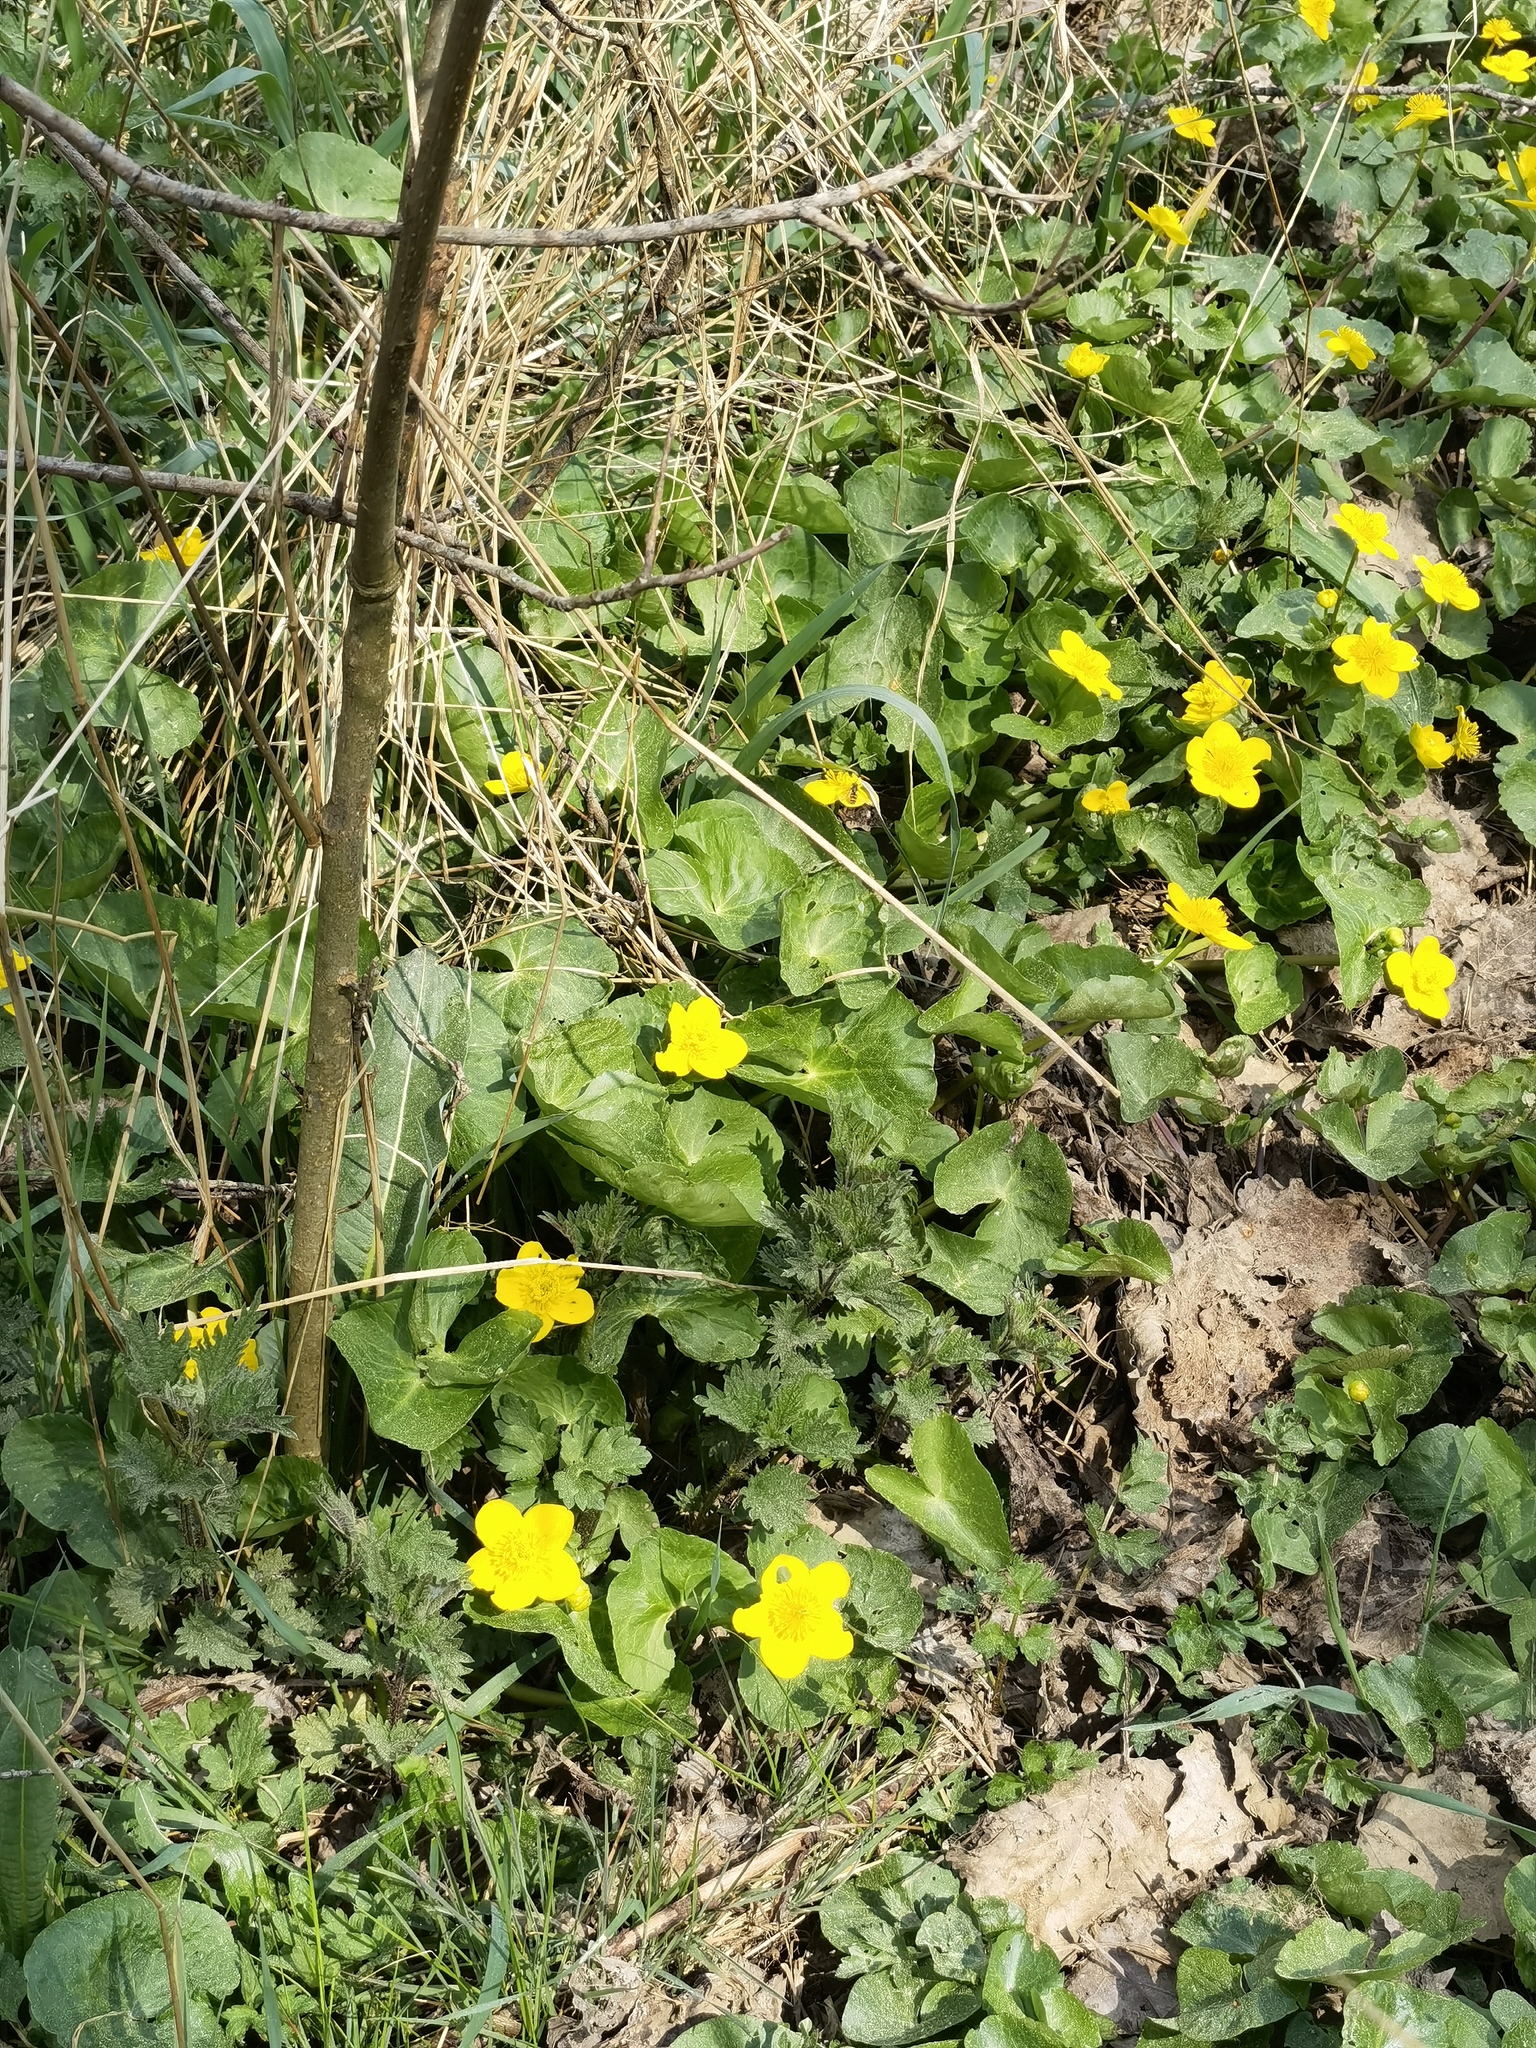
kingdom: Plantae
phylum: Tracheophyta
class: Magnoliopsida
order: Ranunculales
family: Ranunculaceae
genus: Caltha
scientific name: Caltha palustris
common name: Marsh marigold
